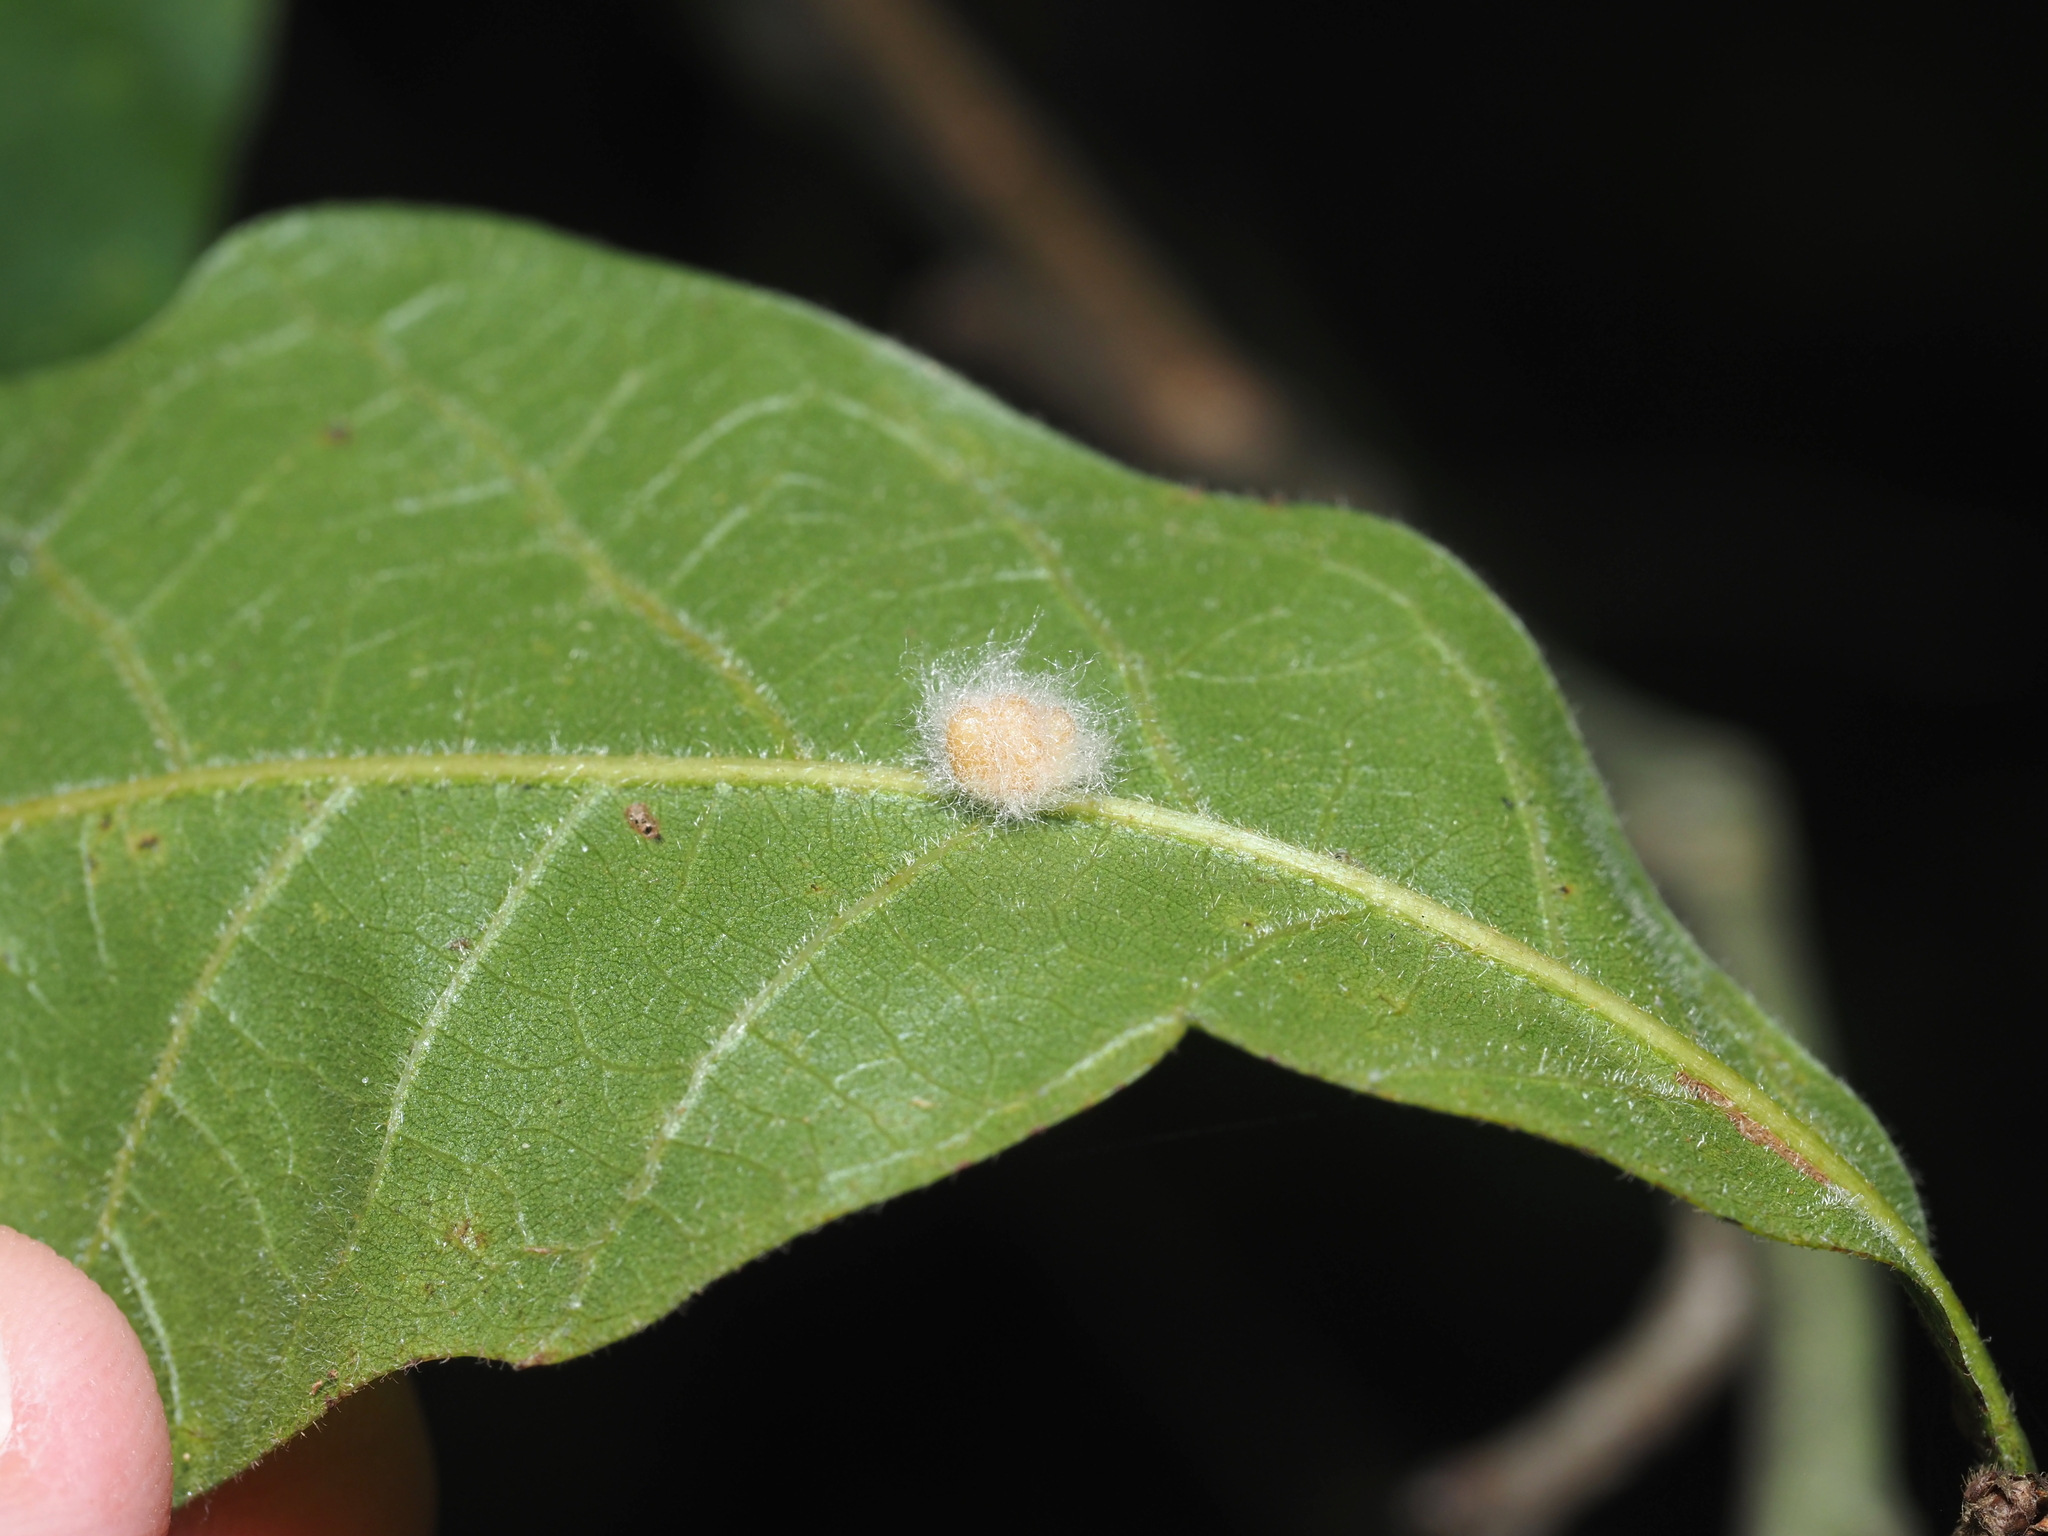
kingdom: Animalia
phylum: Arthropoda
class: Insecta
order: Hymenoptera
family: Cynipidae
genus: Andricus
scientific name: Andricus Druon ignotum
